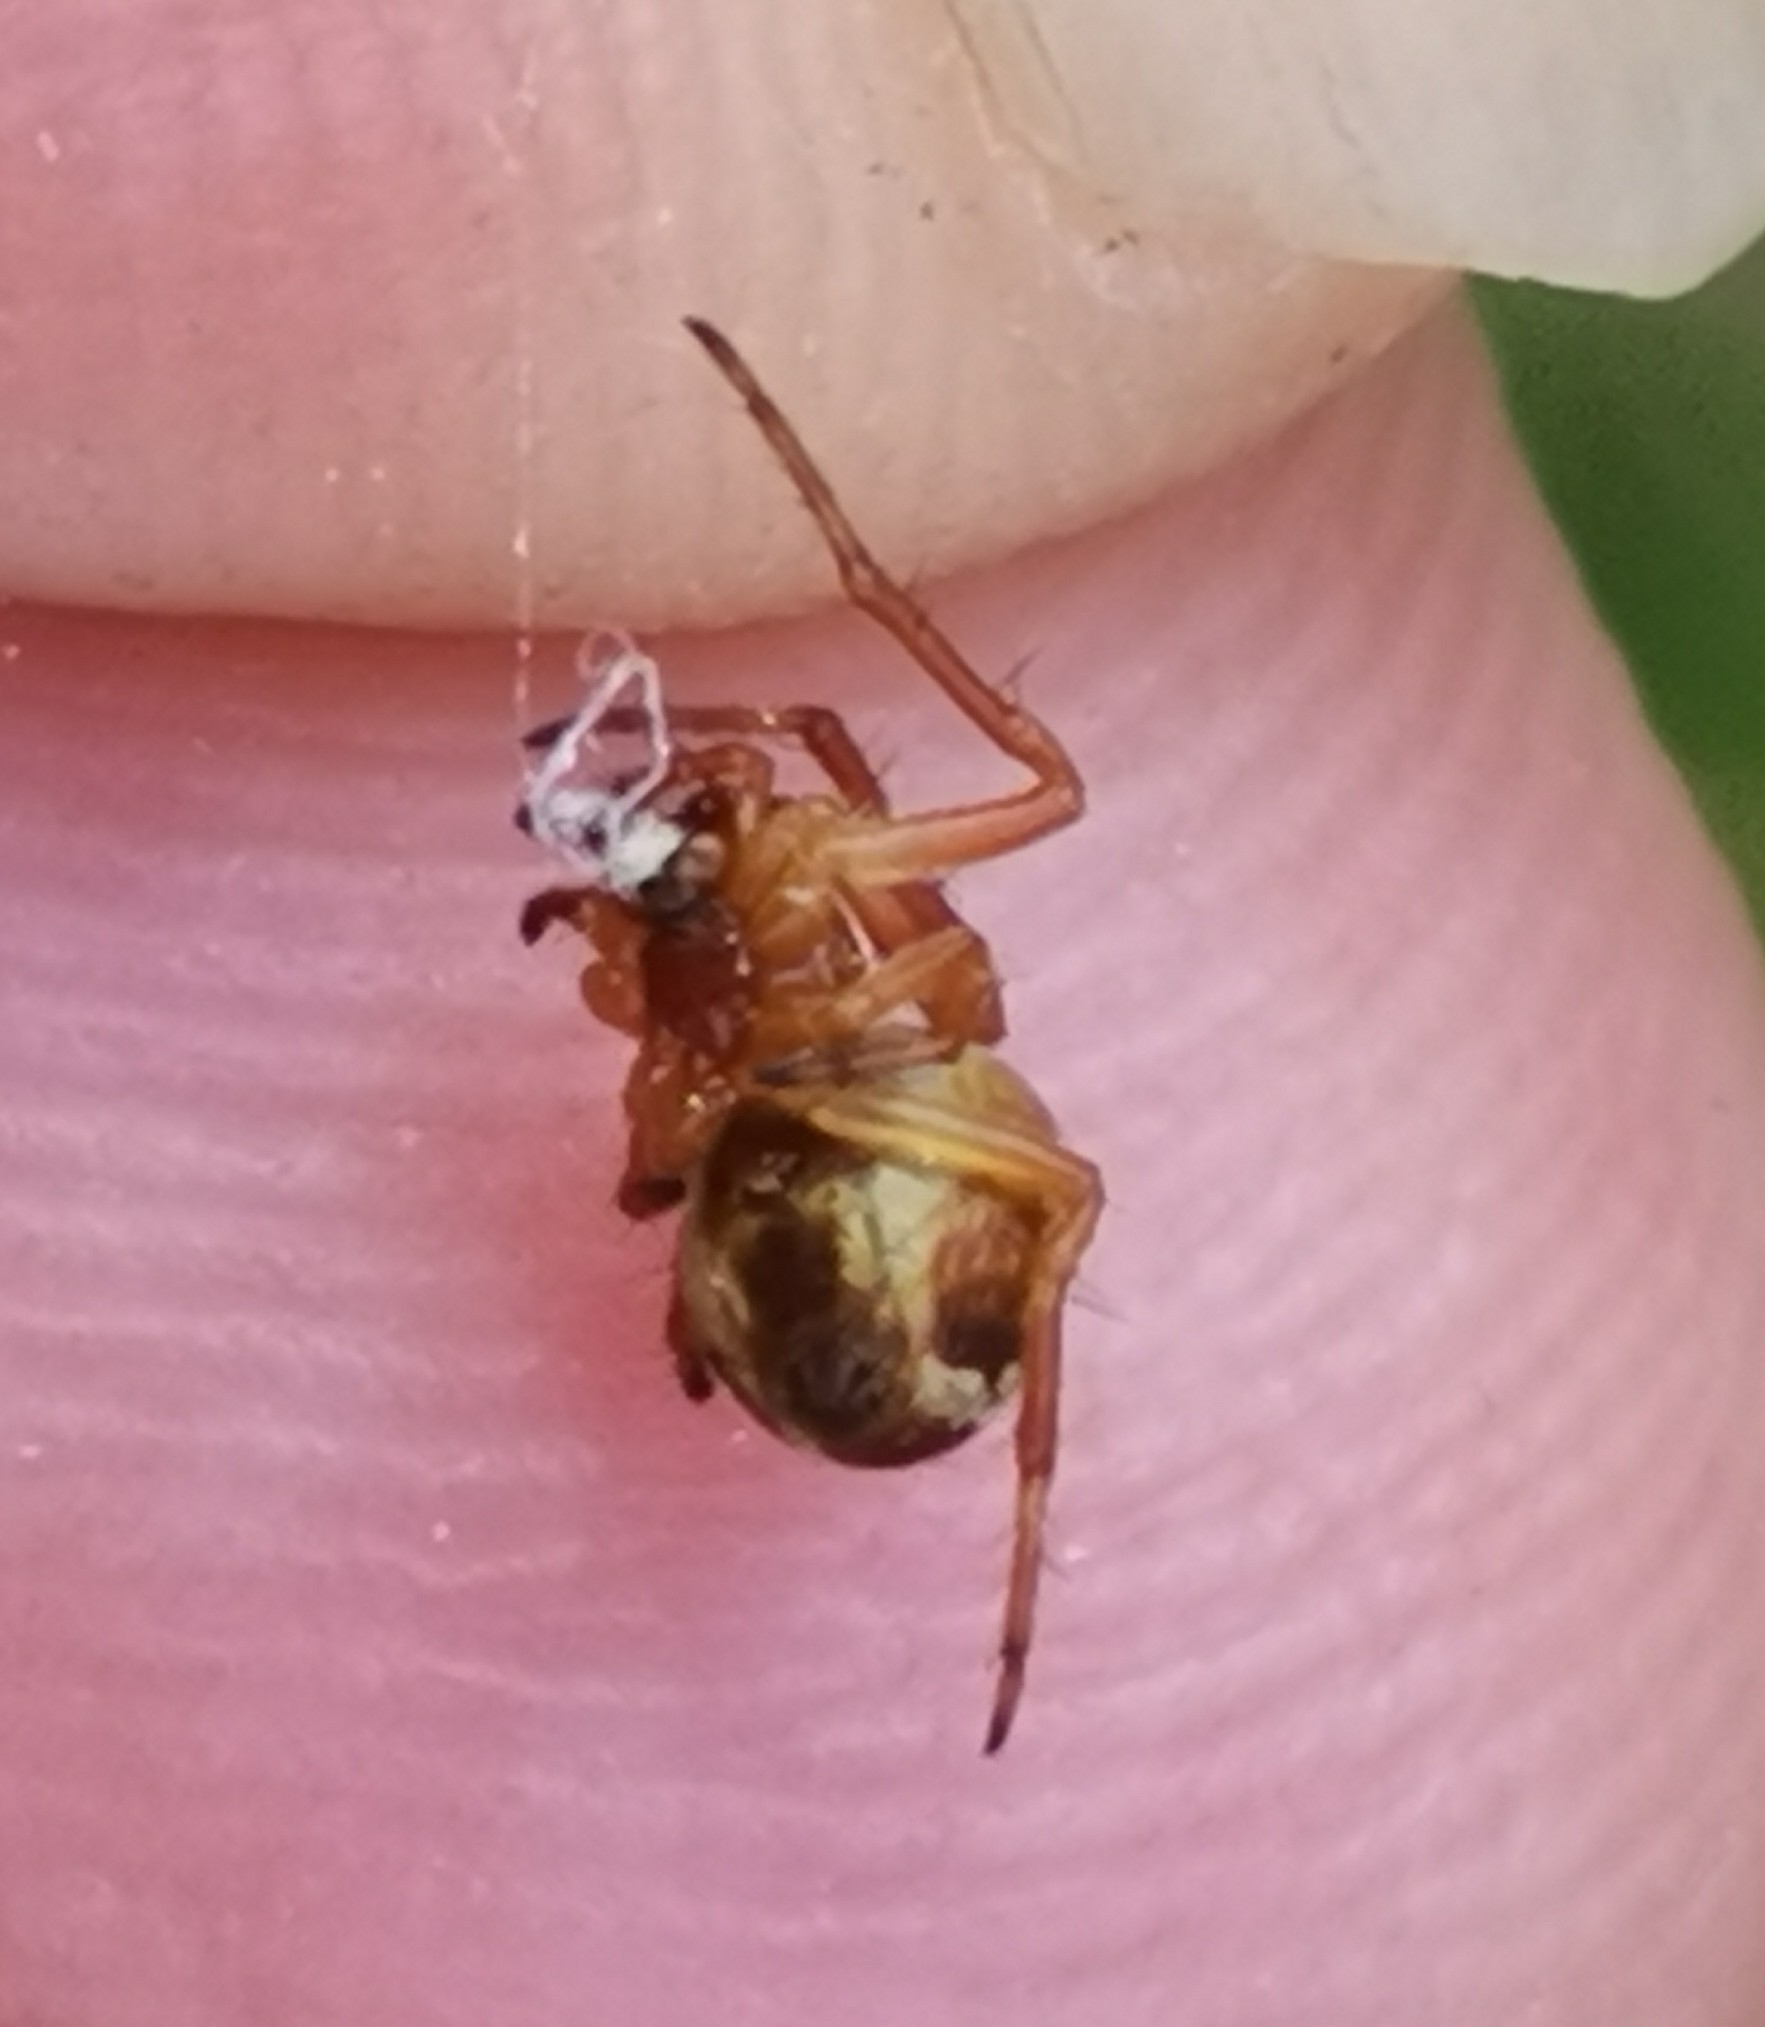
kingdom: Animalia
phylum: Arthropoda
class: Arachnida
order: Araneae
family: Araneidae
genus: Araneus
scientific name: Araneus sturmi
